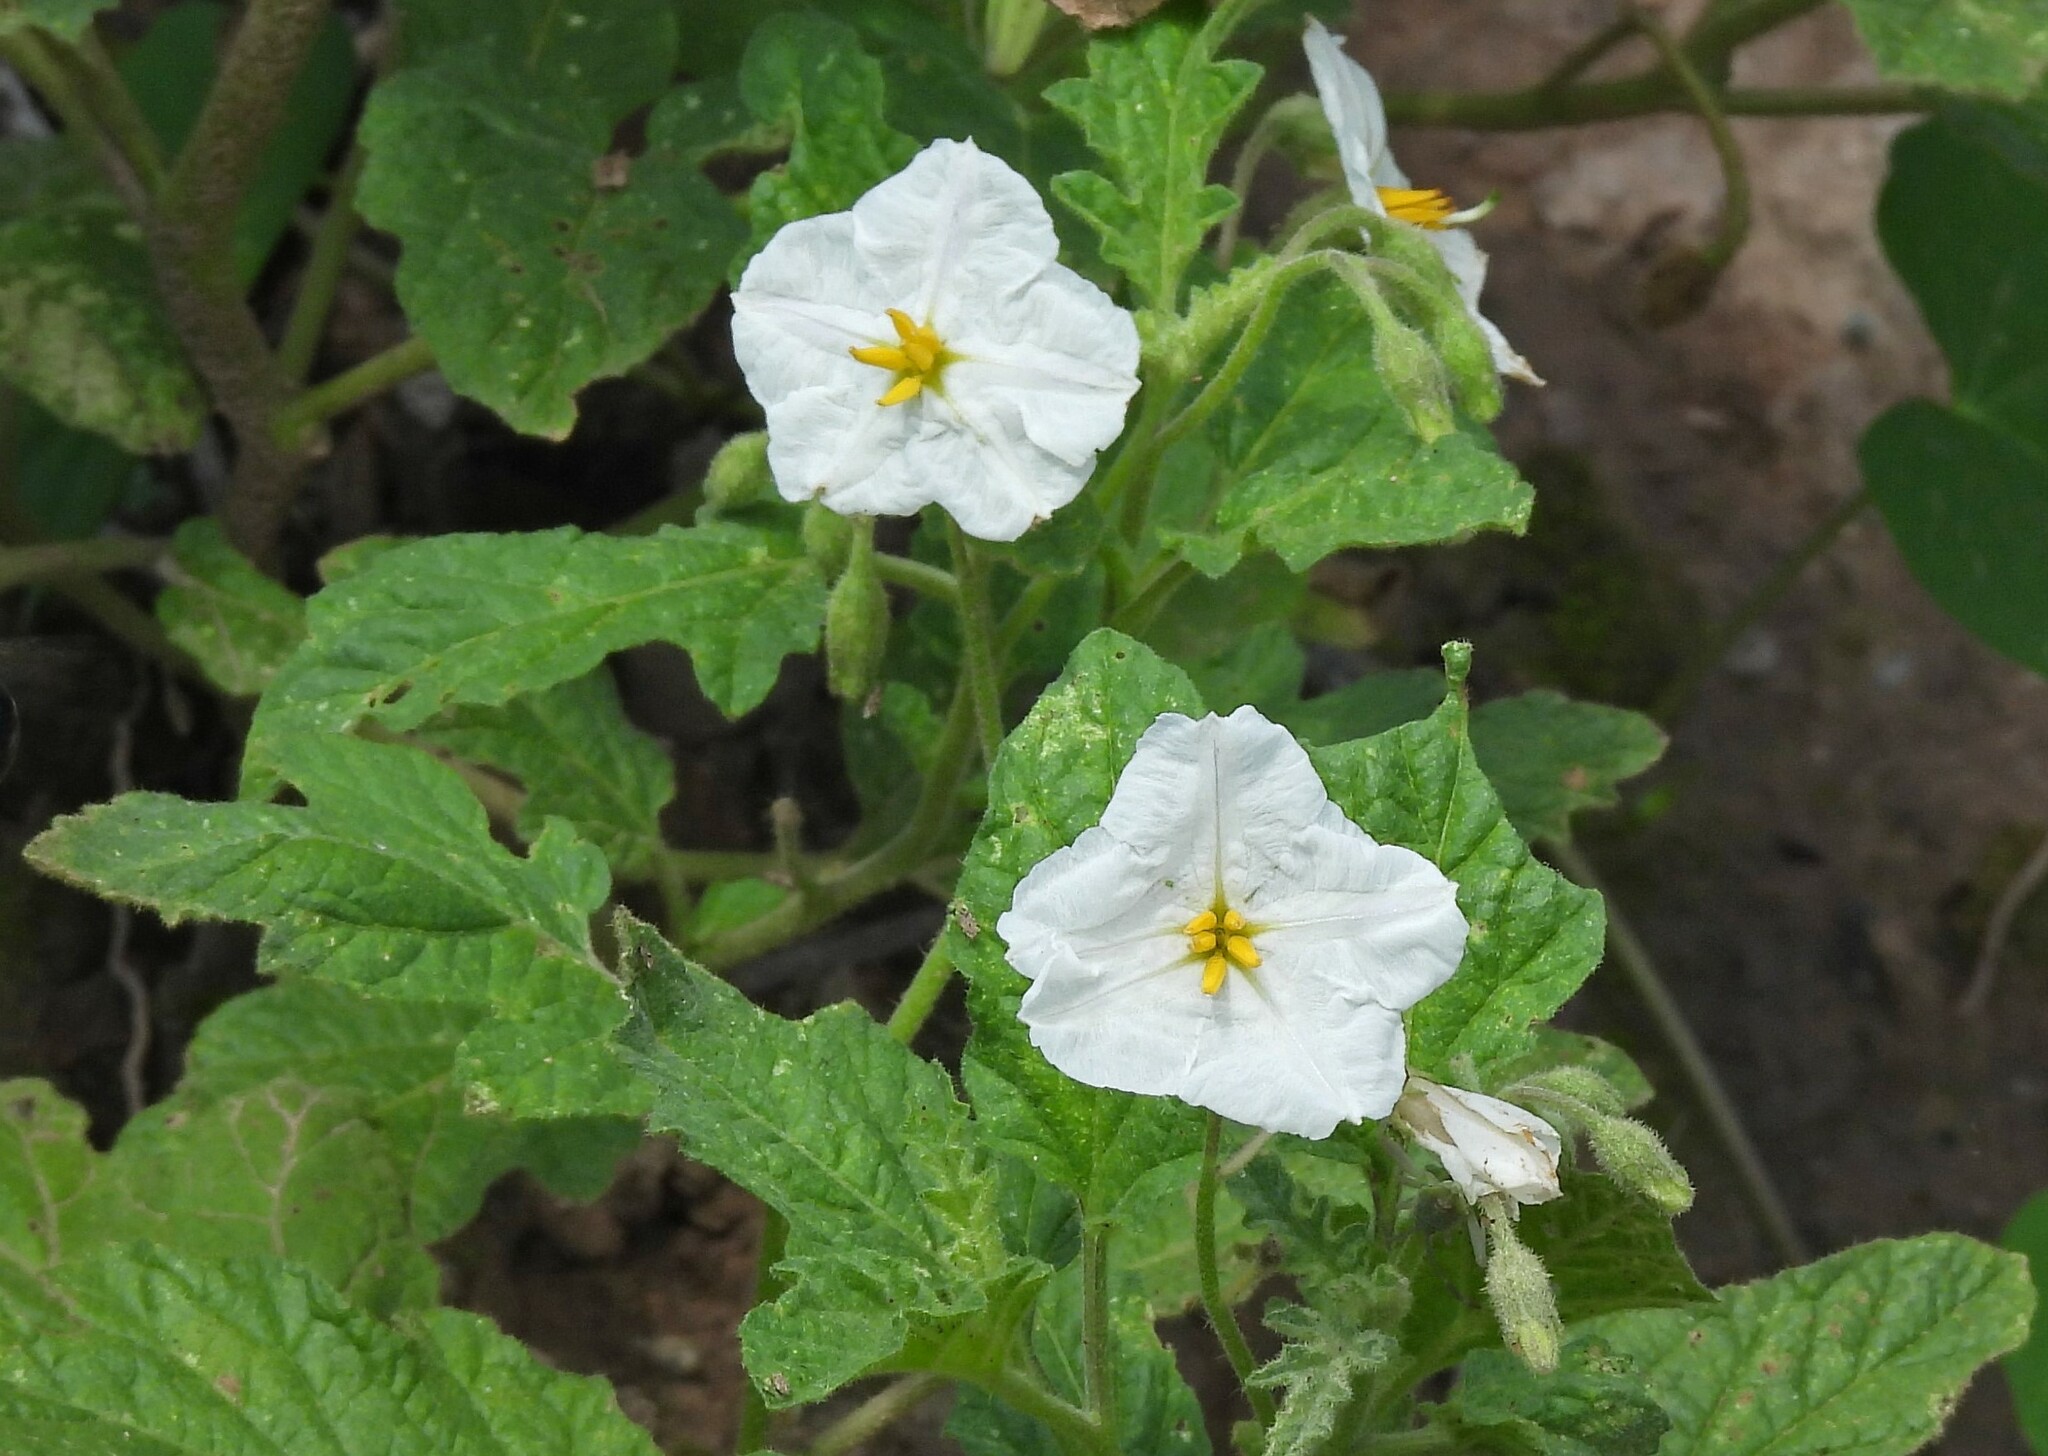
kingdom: Plantae
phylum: Tracheophyta
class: Magnoliopsida
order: Solanales
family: Solanaceae
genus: Solanum
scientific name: Solanum hieronymi
